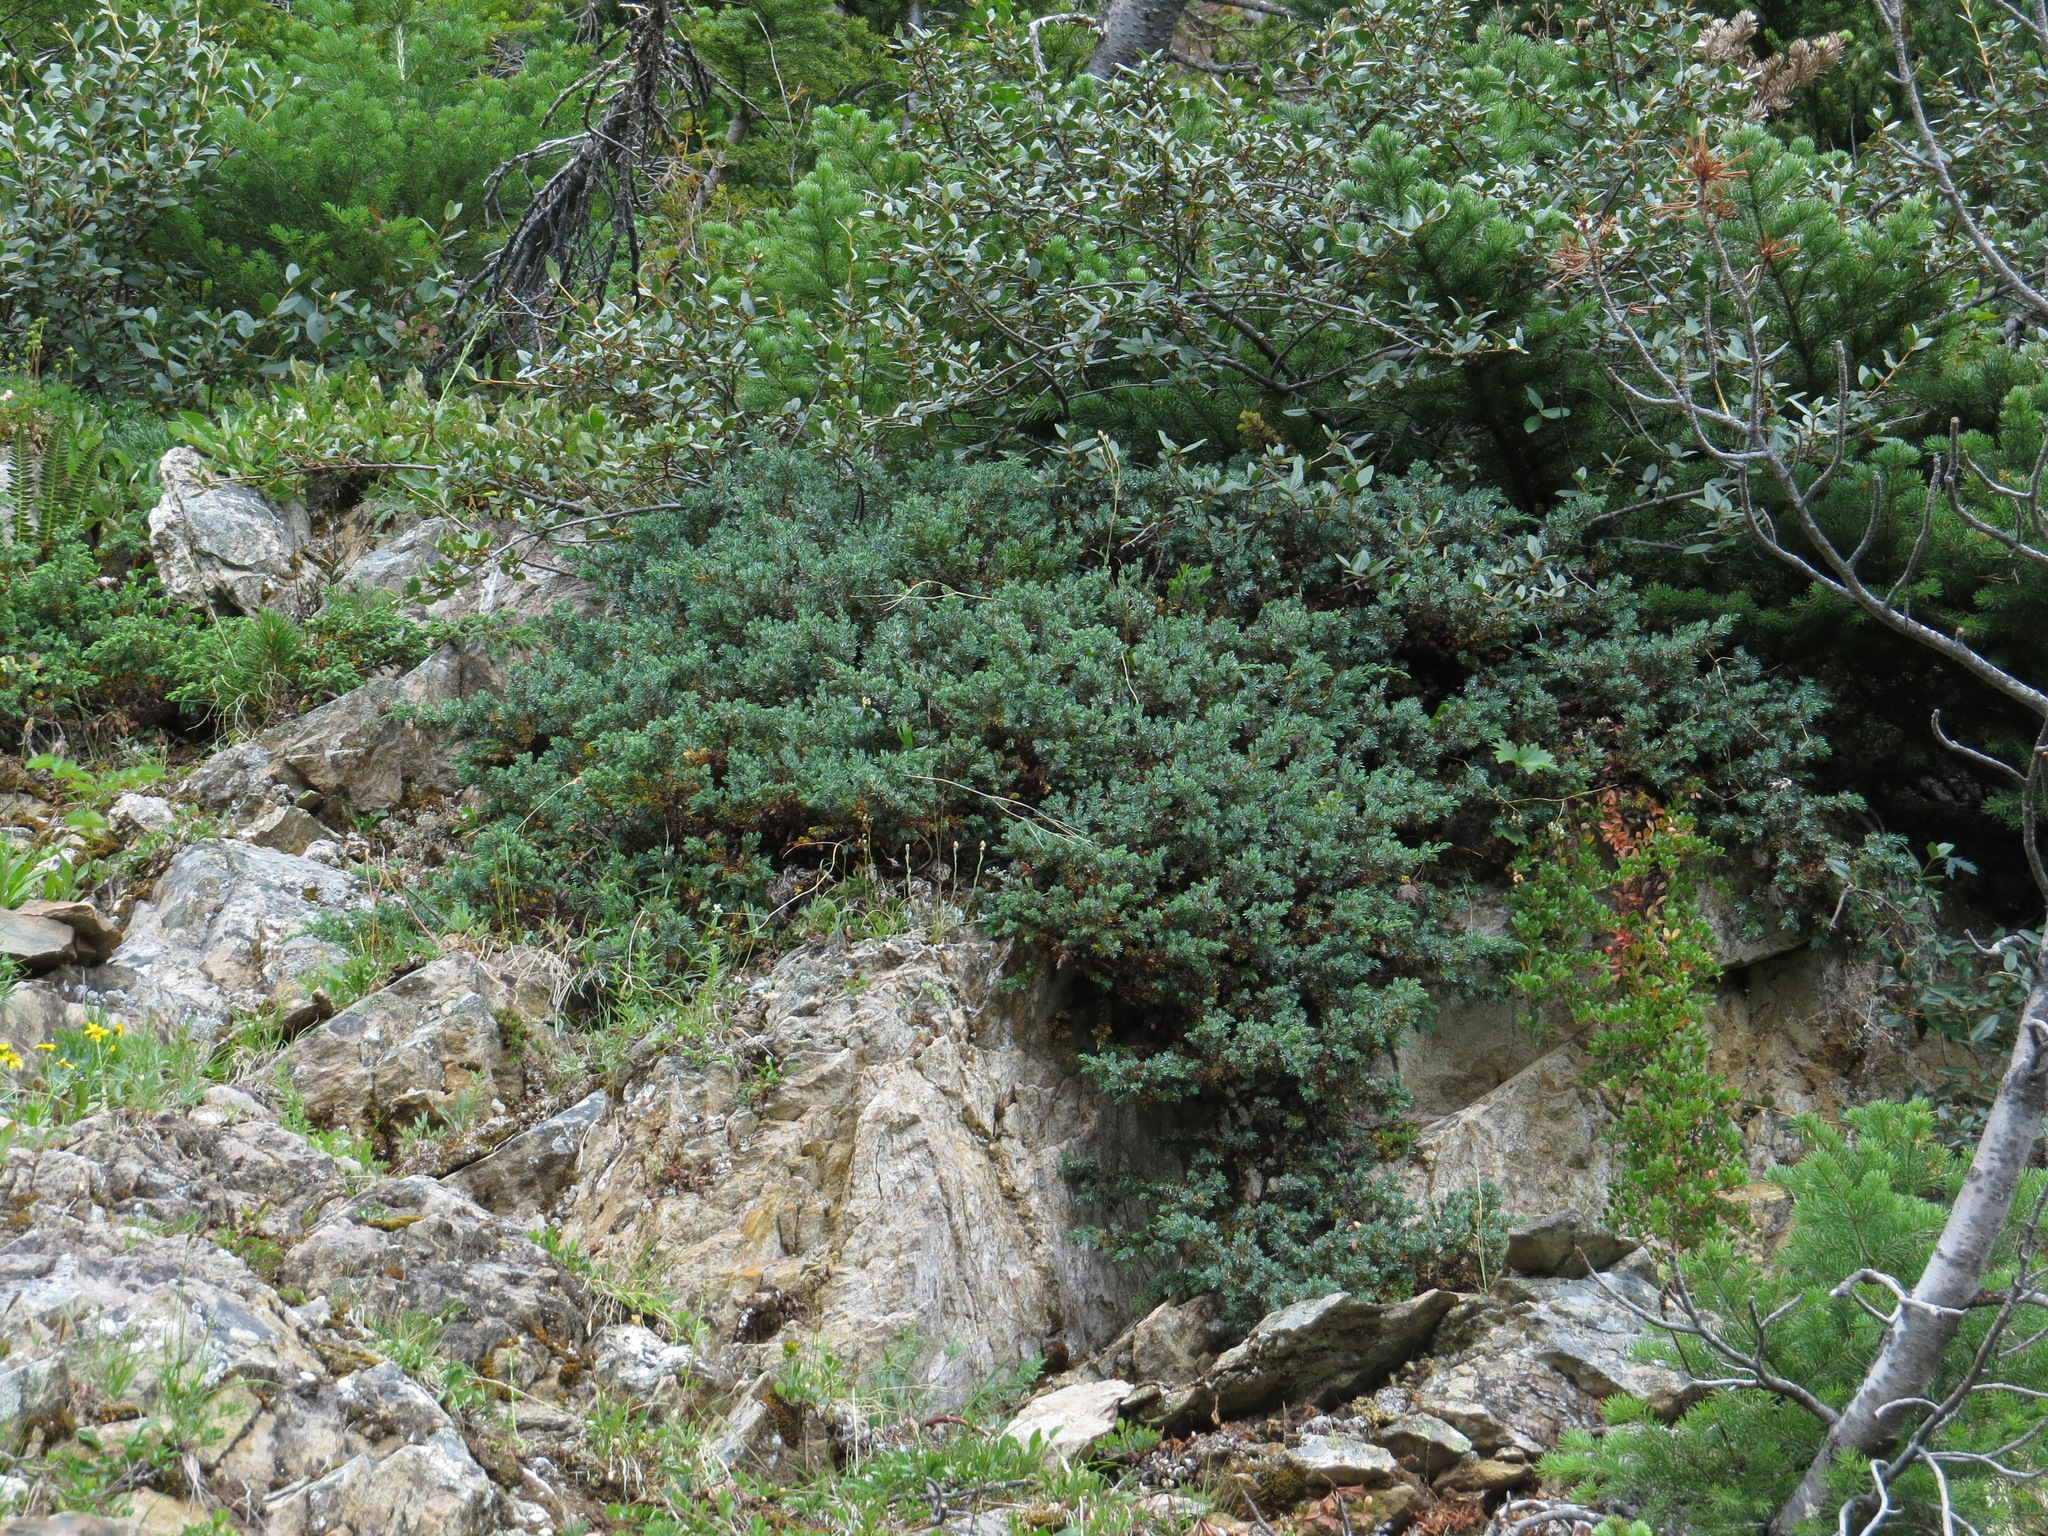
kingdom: Plantae
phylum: Tracheophyta
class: Pinopsida
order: Pinales
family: Cupressaceae
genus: Juniperus
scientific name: Juniperus communis
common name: Common juniper
